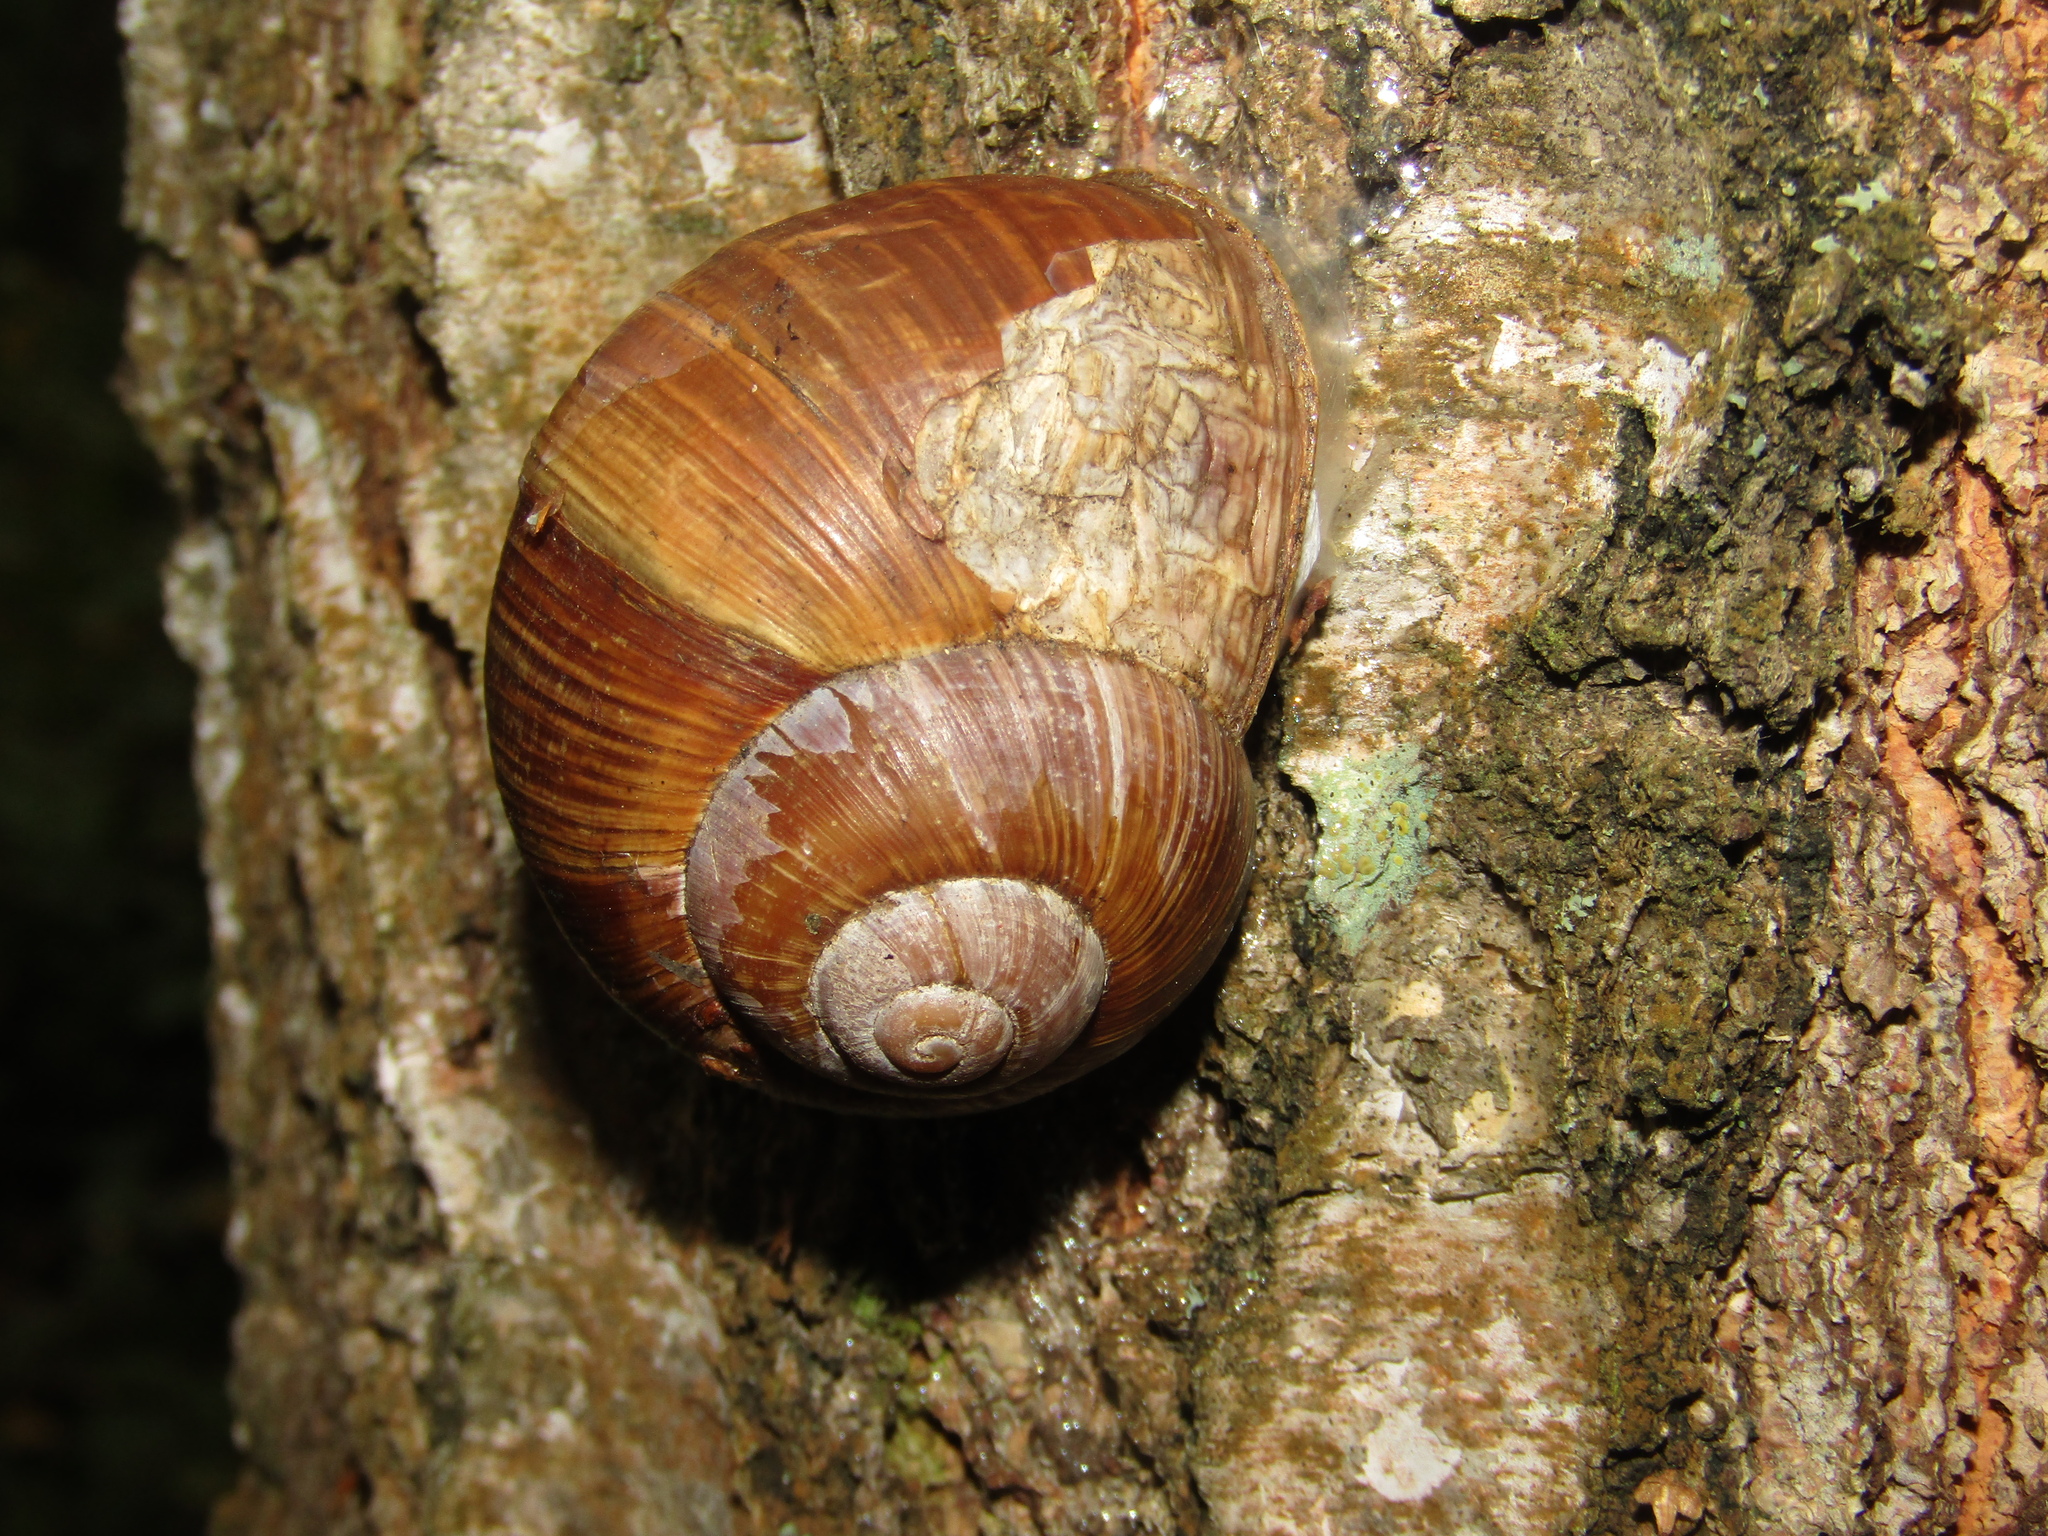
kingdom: Animalia
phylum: Mollusca
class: Gastropoda
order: Stylommatophora
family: Helicidae
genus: Helix
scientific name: Helix pomatia
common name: Roman snail
